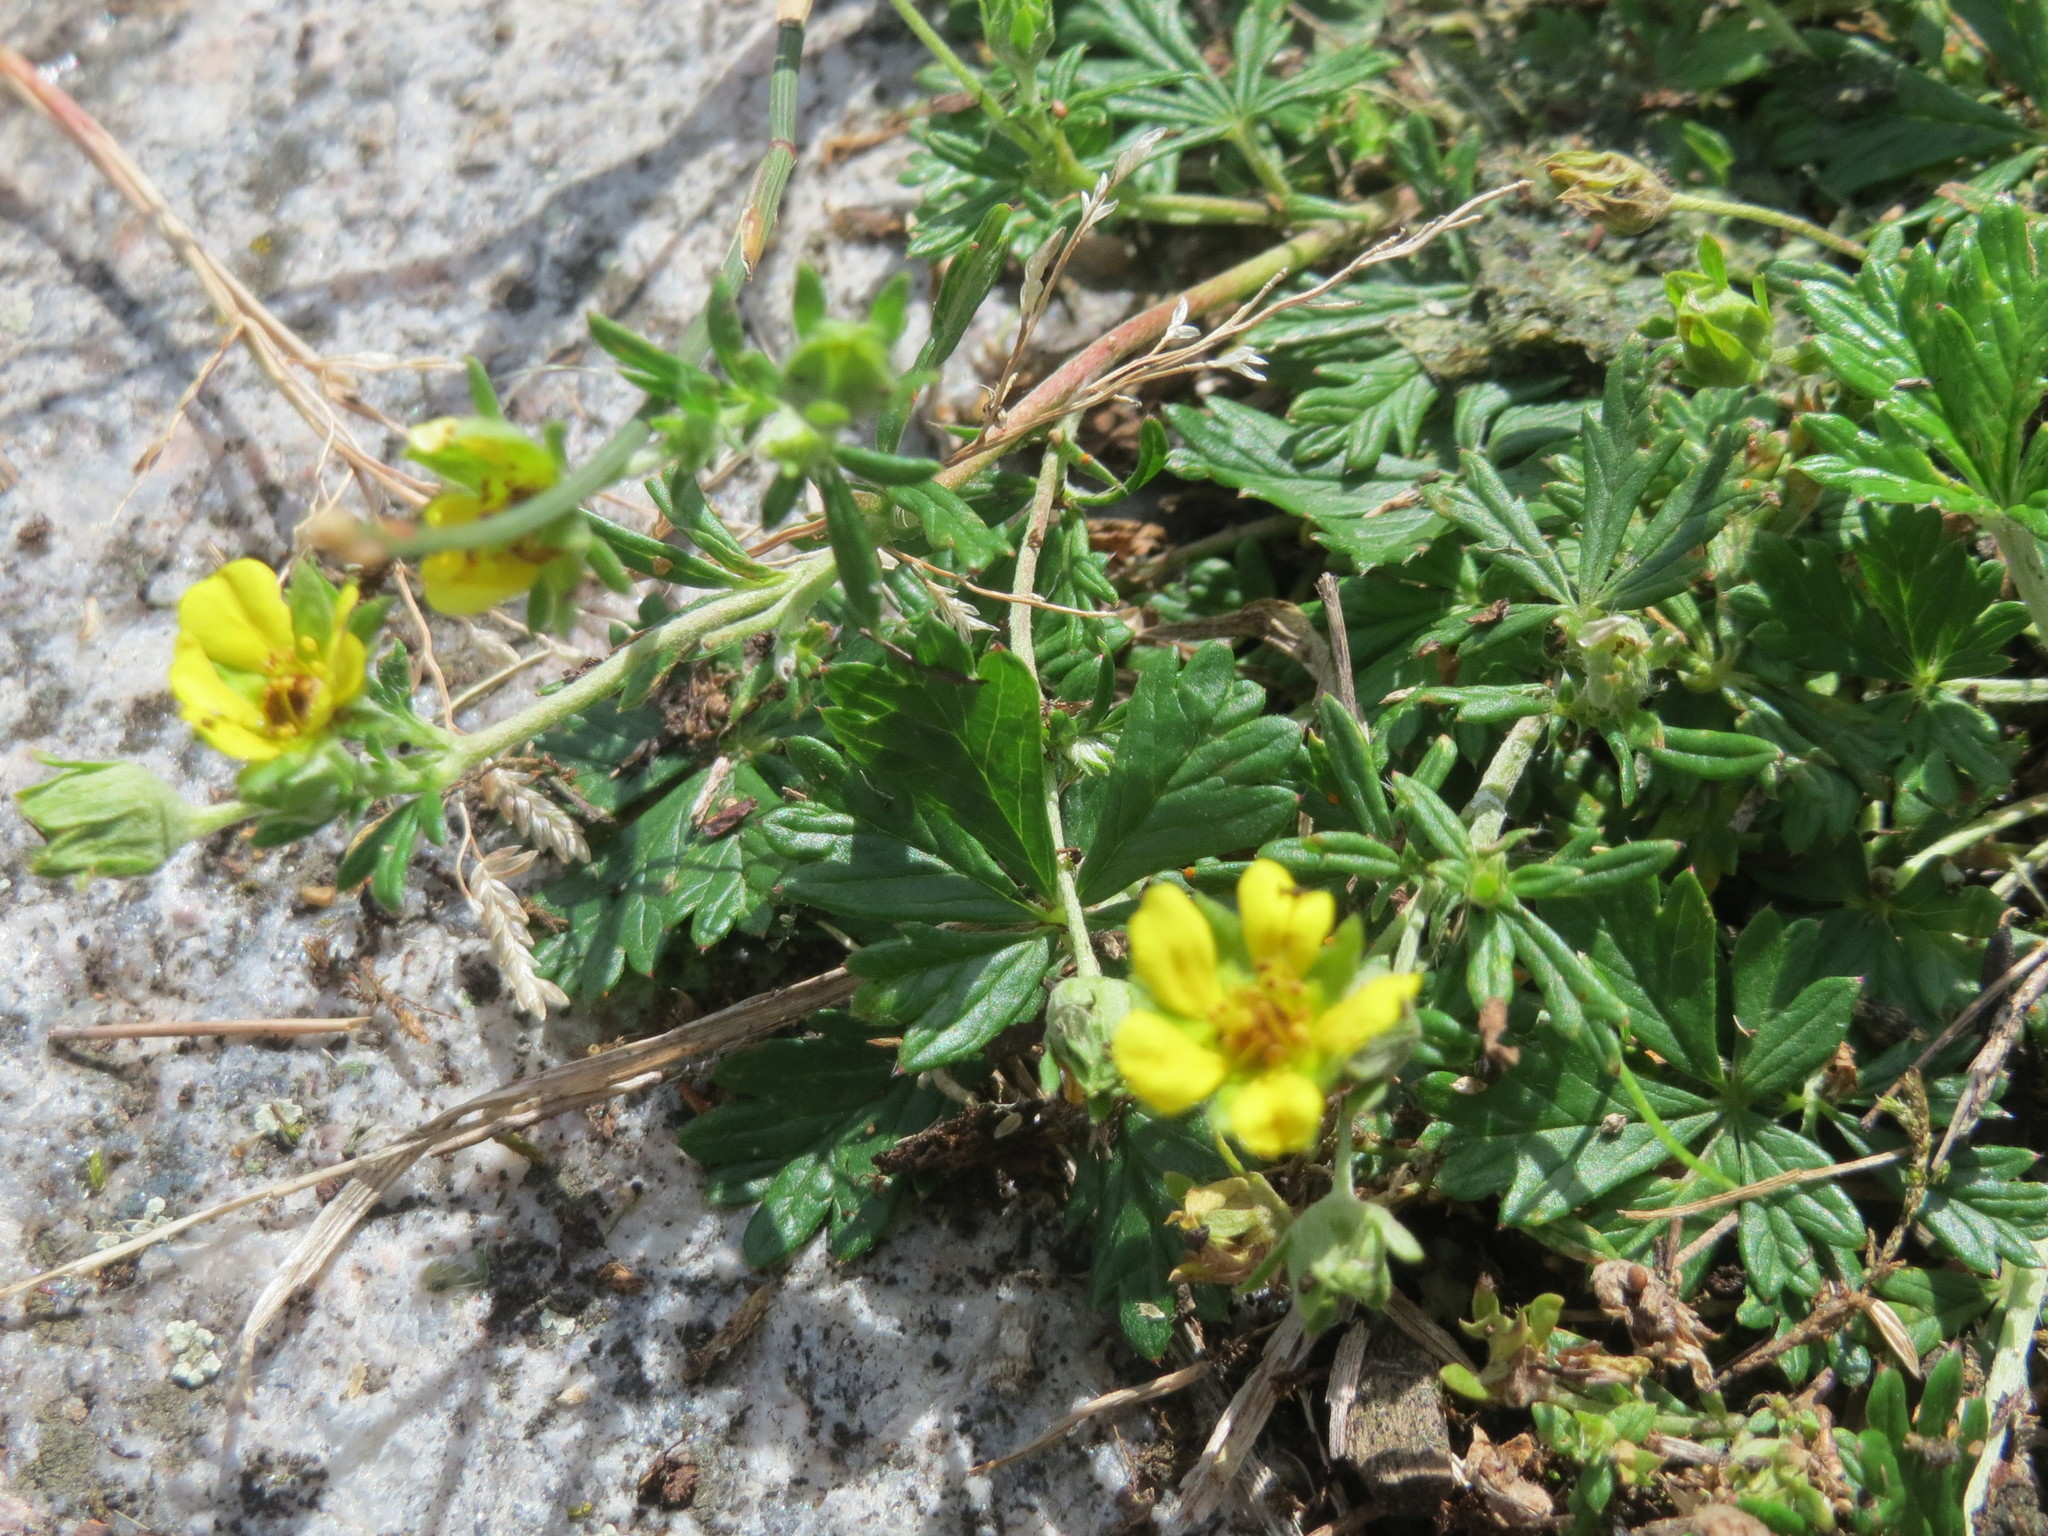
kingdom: Plantae
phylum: Tracheophyta
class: Magnoliopsida
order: Rosales
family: Rosaceae
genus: Potentilla
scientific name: Potentilla argentea
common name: Hoary cinquefoil
